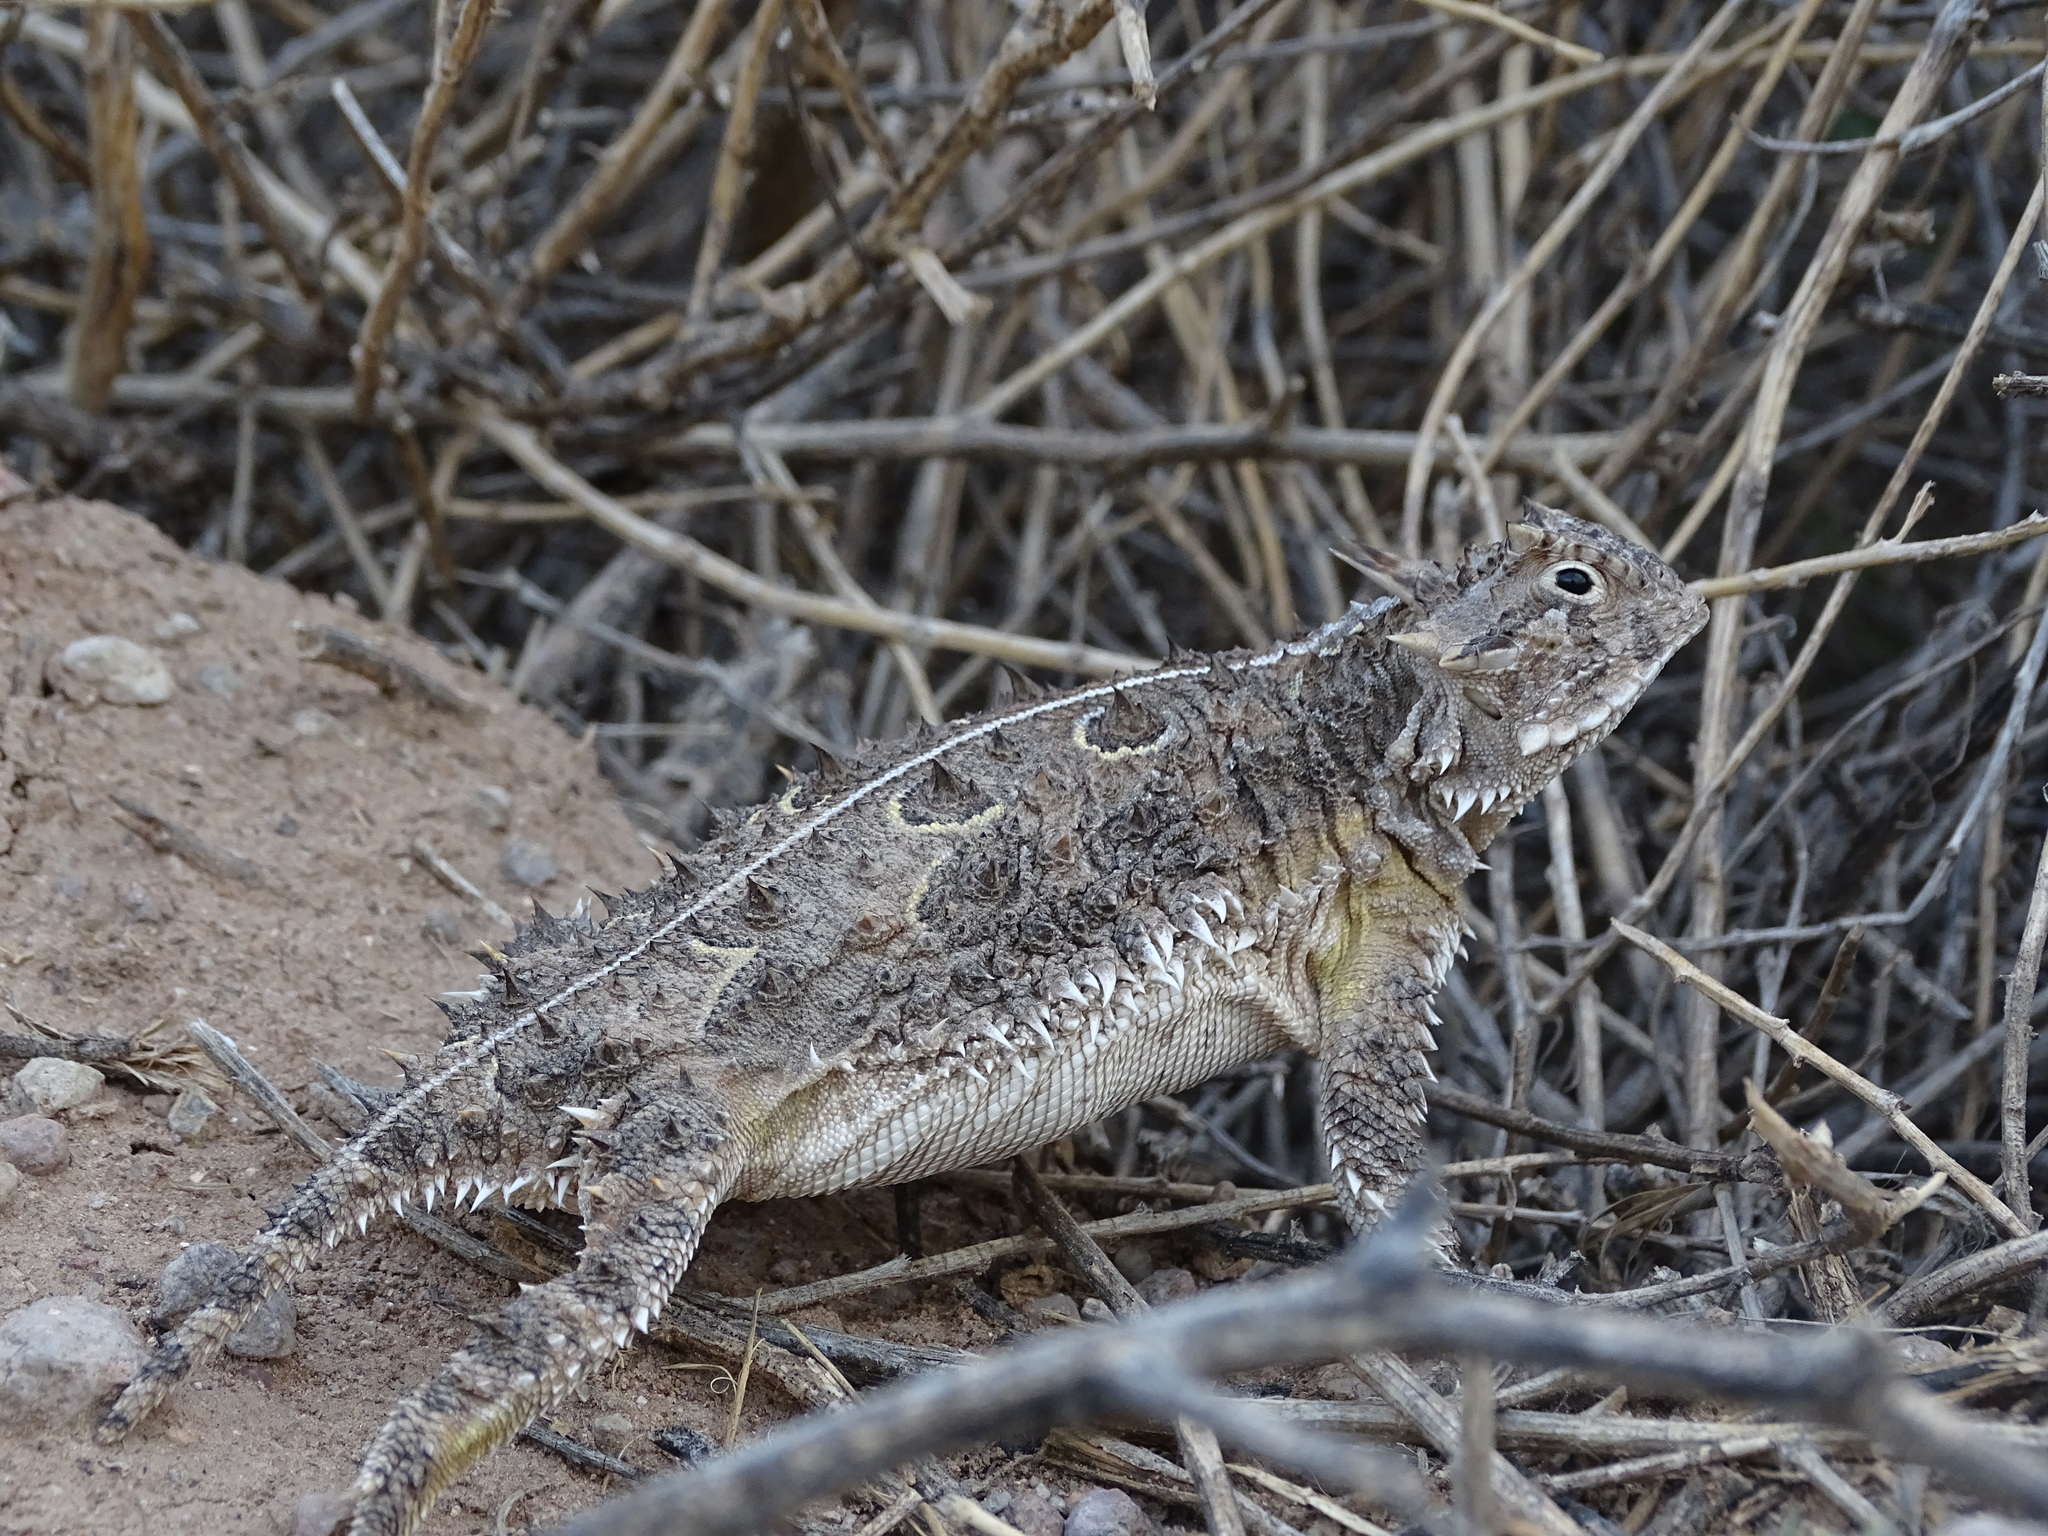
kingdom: Animalia
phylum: Chordata
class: Squamata
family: Phrynosomatidae
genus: Phrynosoma
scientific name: Phrynosoma cornutum
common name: Texas horned lizard
